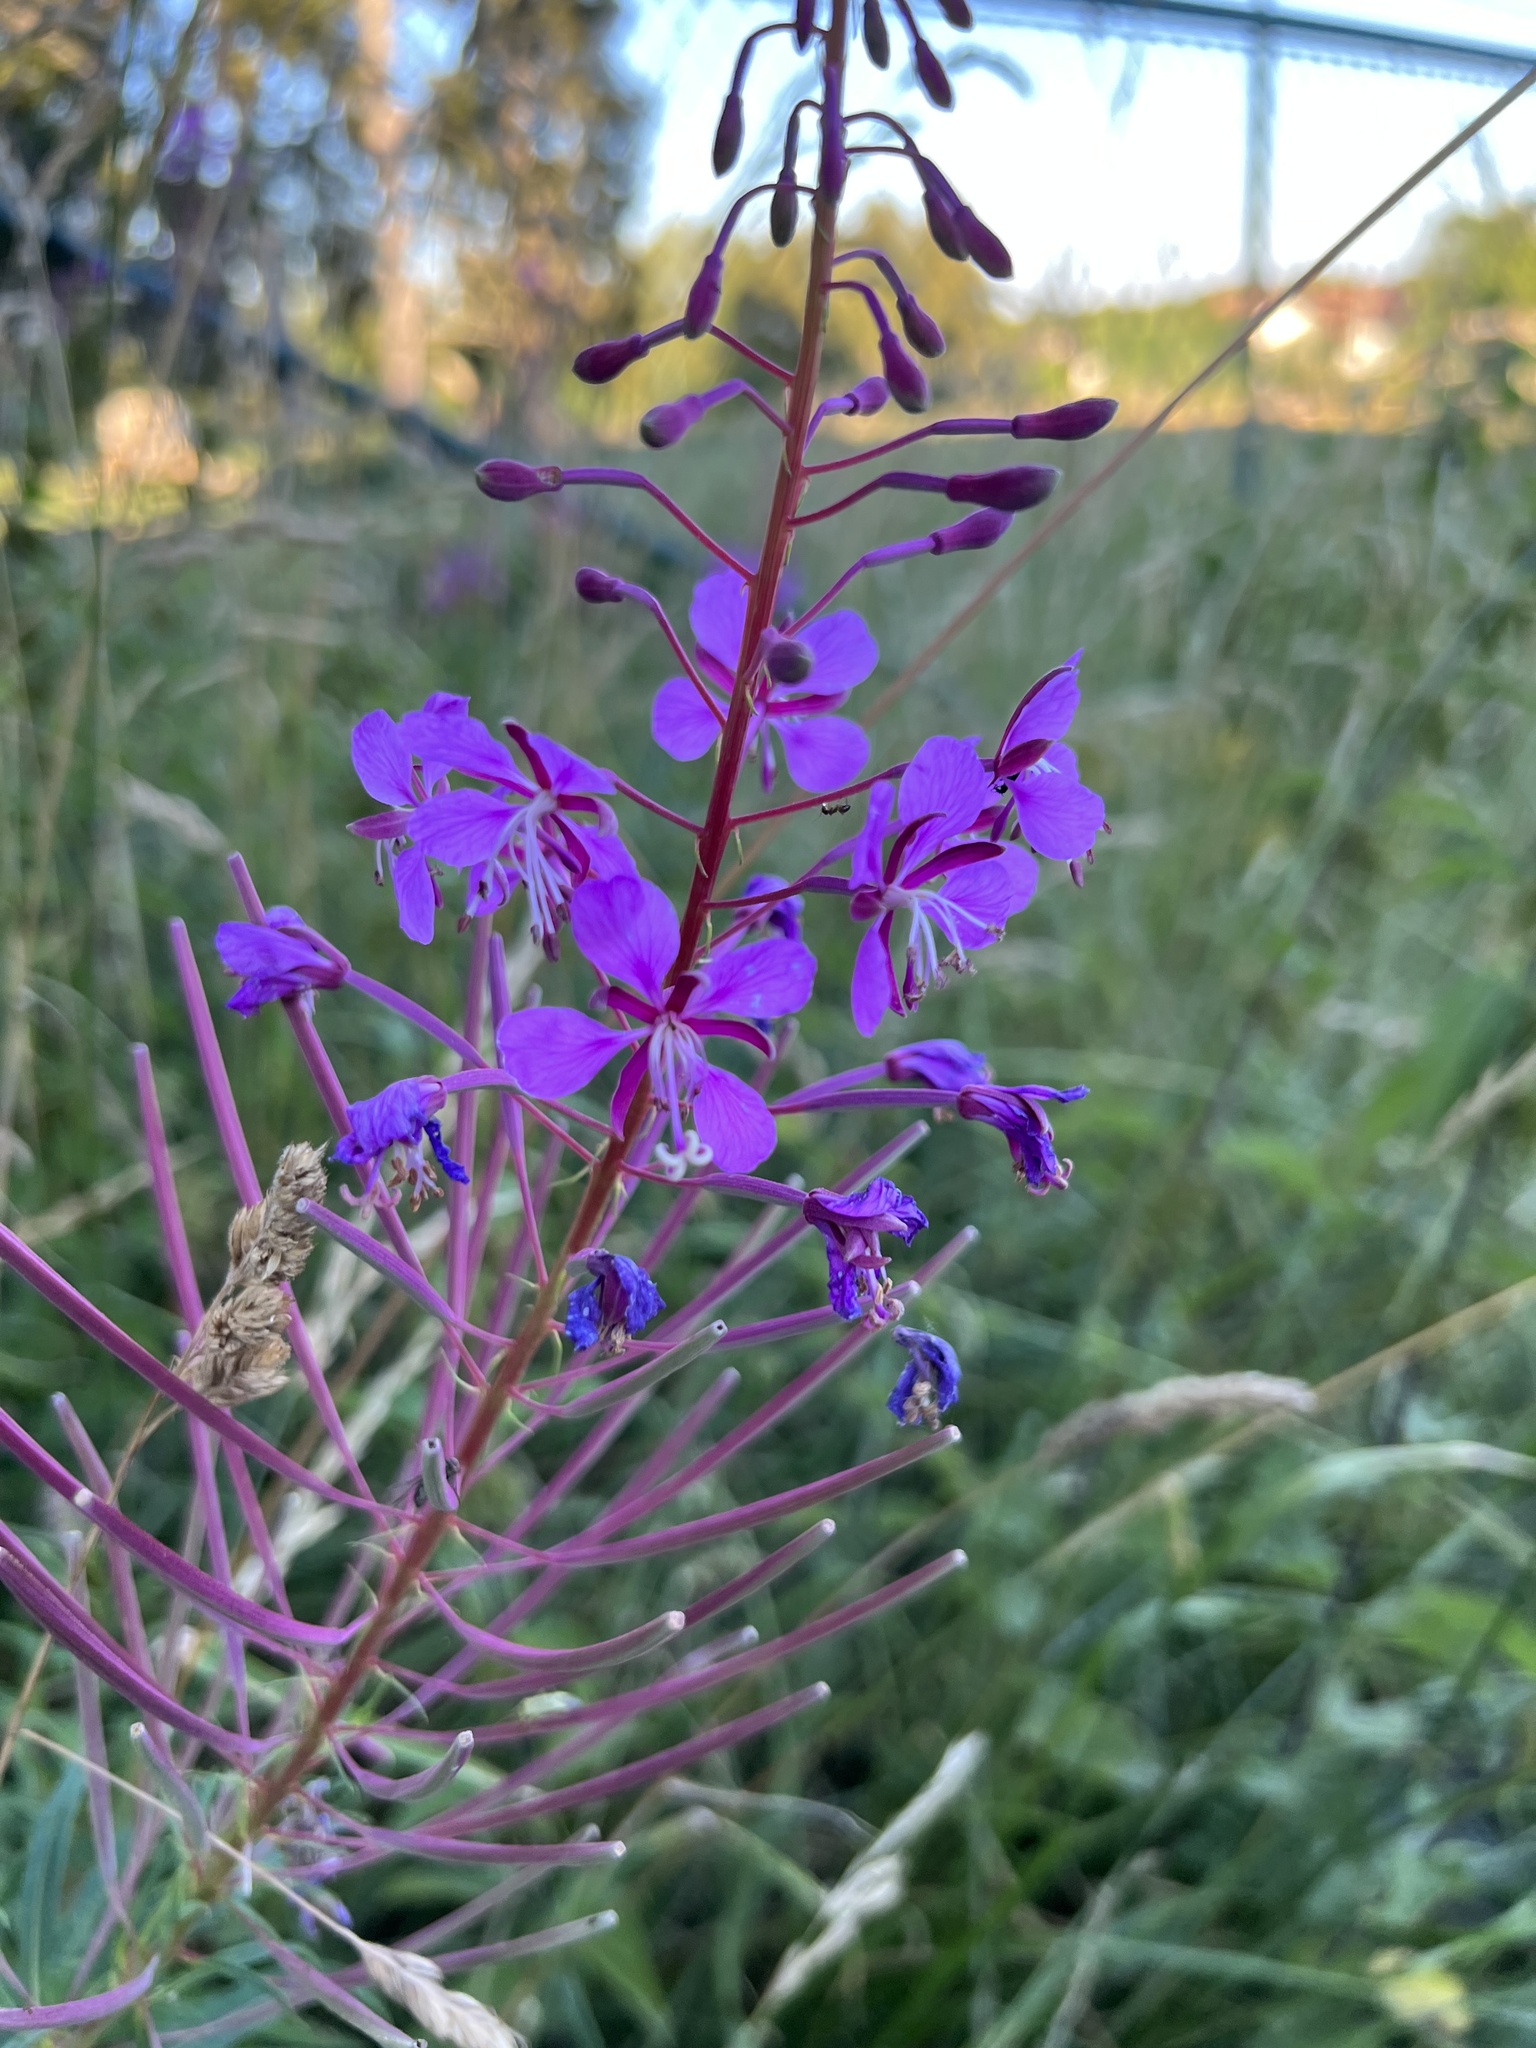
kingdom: Plantae
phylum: Tracheophyta
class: Magnoliopsida
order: Myrtales
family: Onagraceae
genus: Chamaenerion
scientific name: Chamaenerion angustifolium
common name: Fireweed
